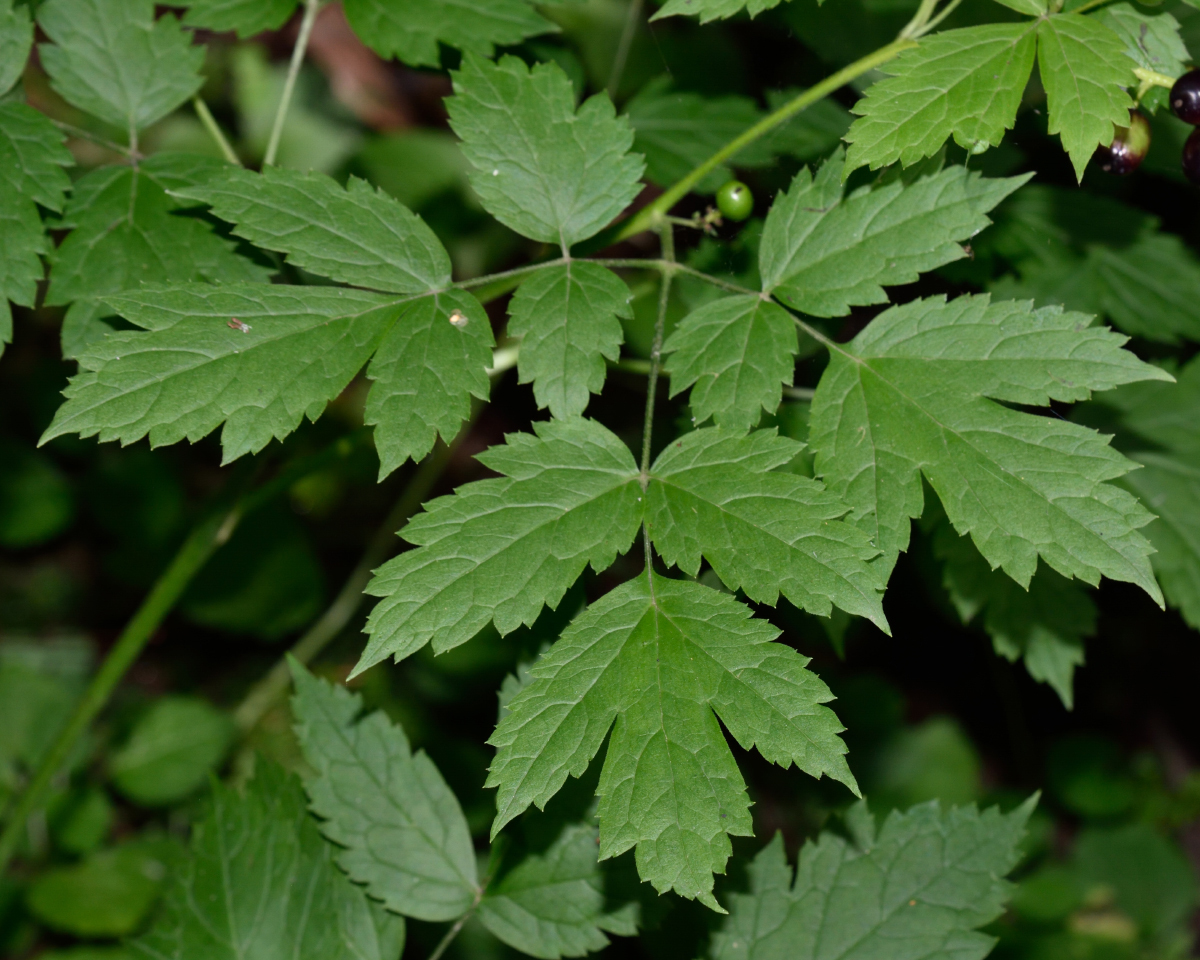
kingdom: Plantae
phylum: Tracheophyta
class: Magnoliopsida
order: Ranunculales
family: Ranunculaceae
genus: Actaea
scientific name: Actaea spicata
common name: Baneberry
